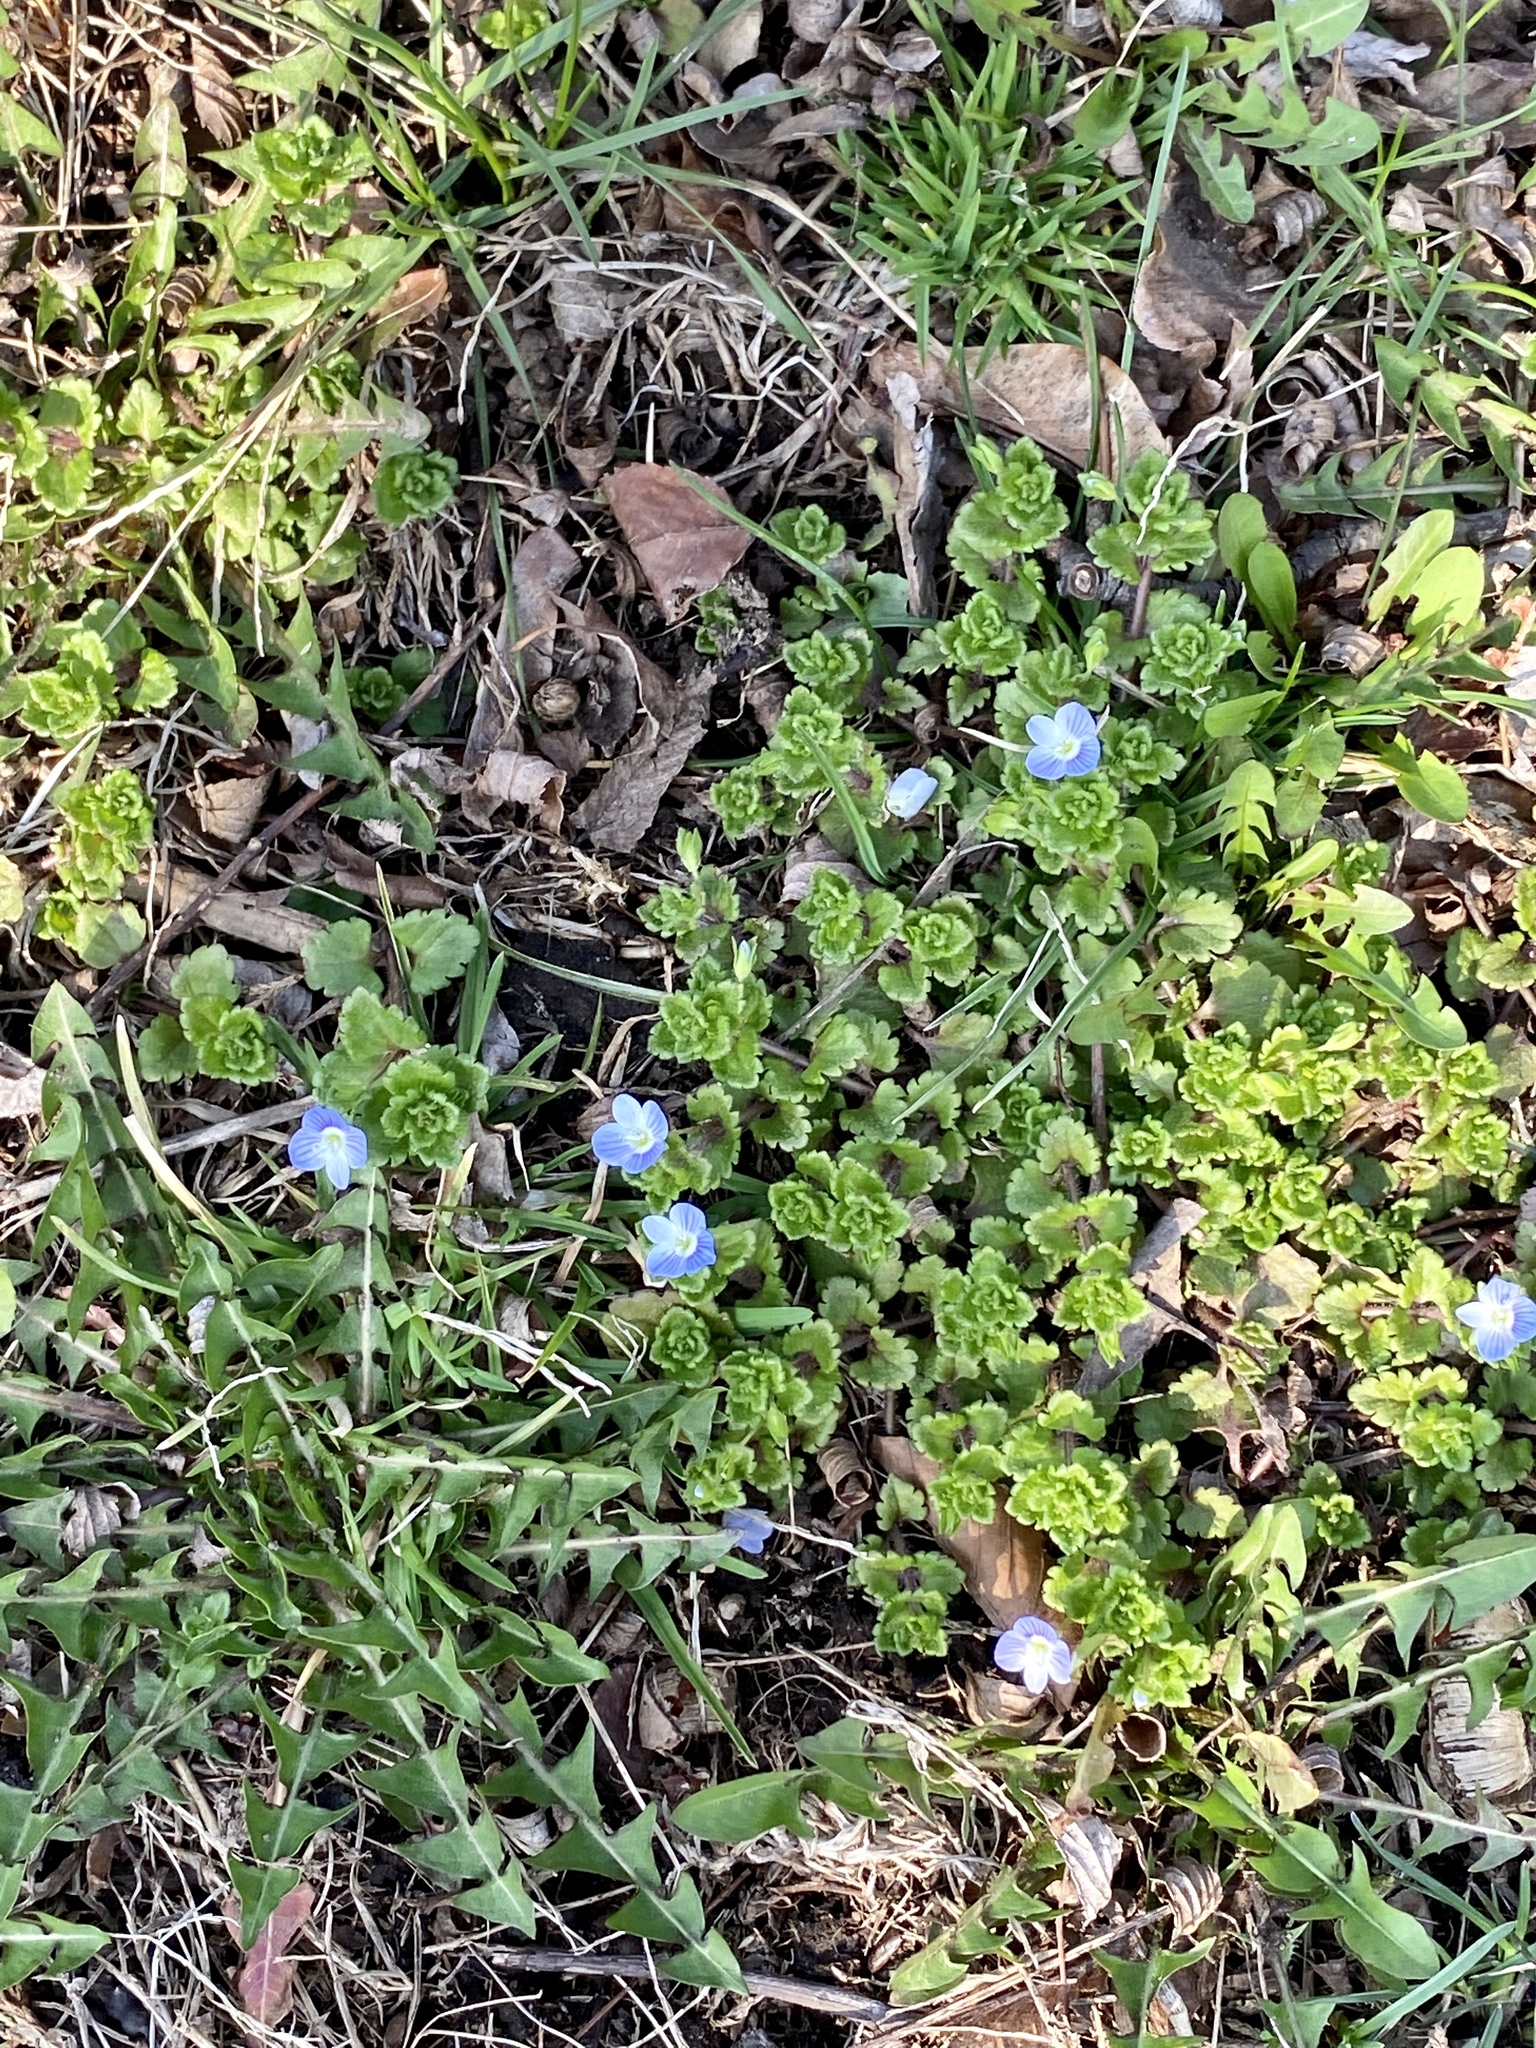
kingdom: Plantae
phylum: Tracheophyta
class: Magnoliopsida
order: Lamiales
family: Plantaginaceae
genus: Veronica
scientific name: Veronica persica
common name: Common field-speedwell
